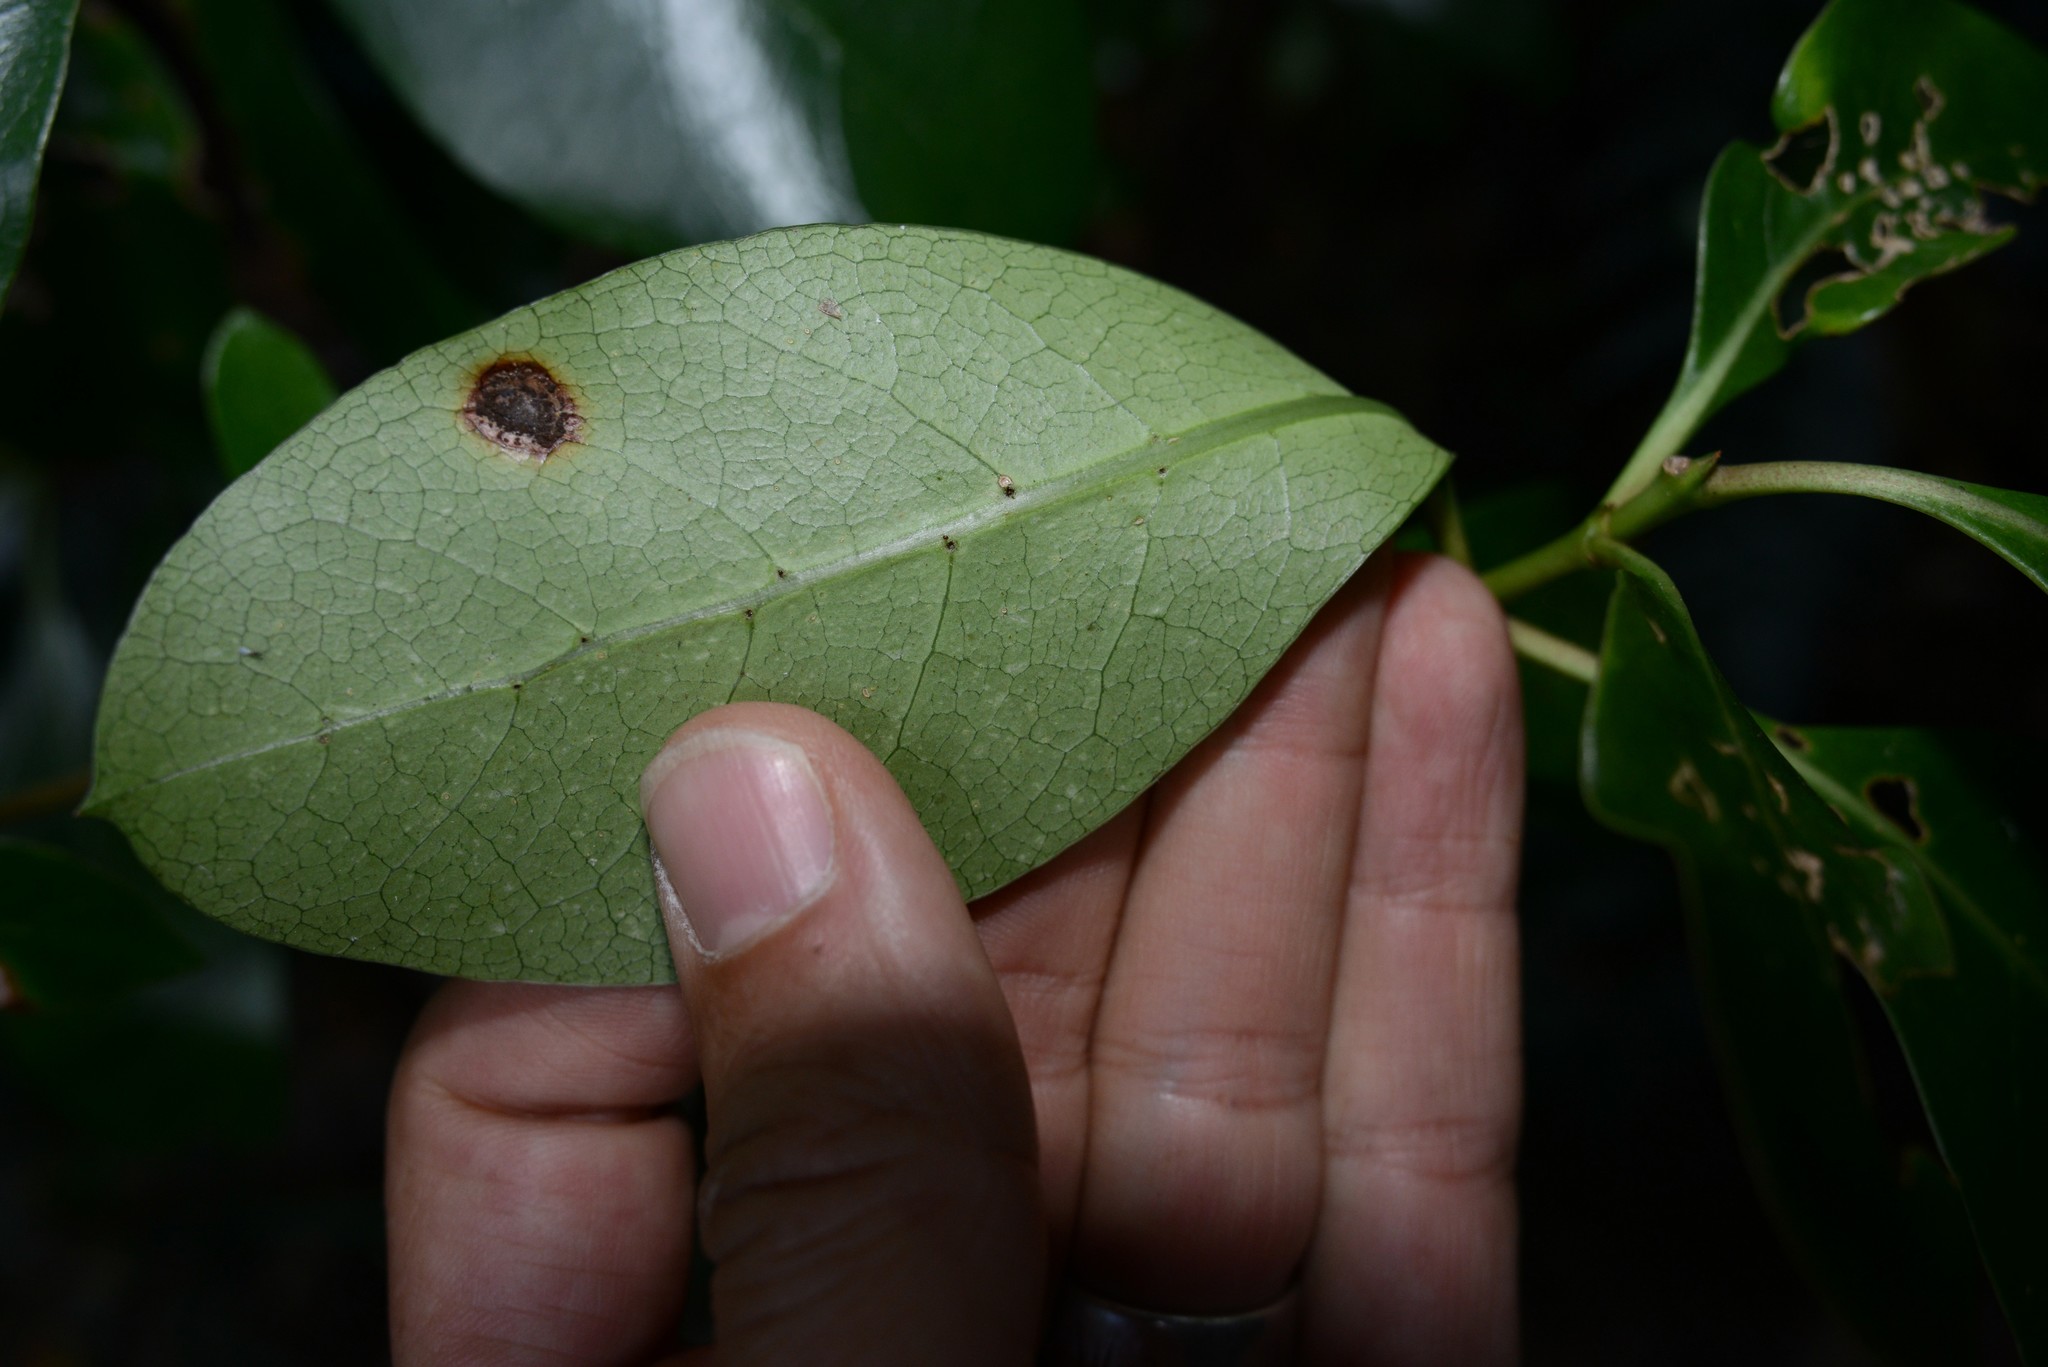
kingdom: Fungi
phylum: Basidiomycota
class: Pucciniomycetes
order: Pucciniales
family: Pucciniaceae
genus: Puccinia
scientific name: Puccinia coprosmae
